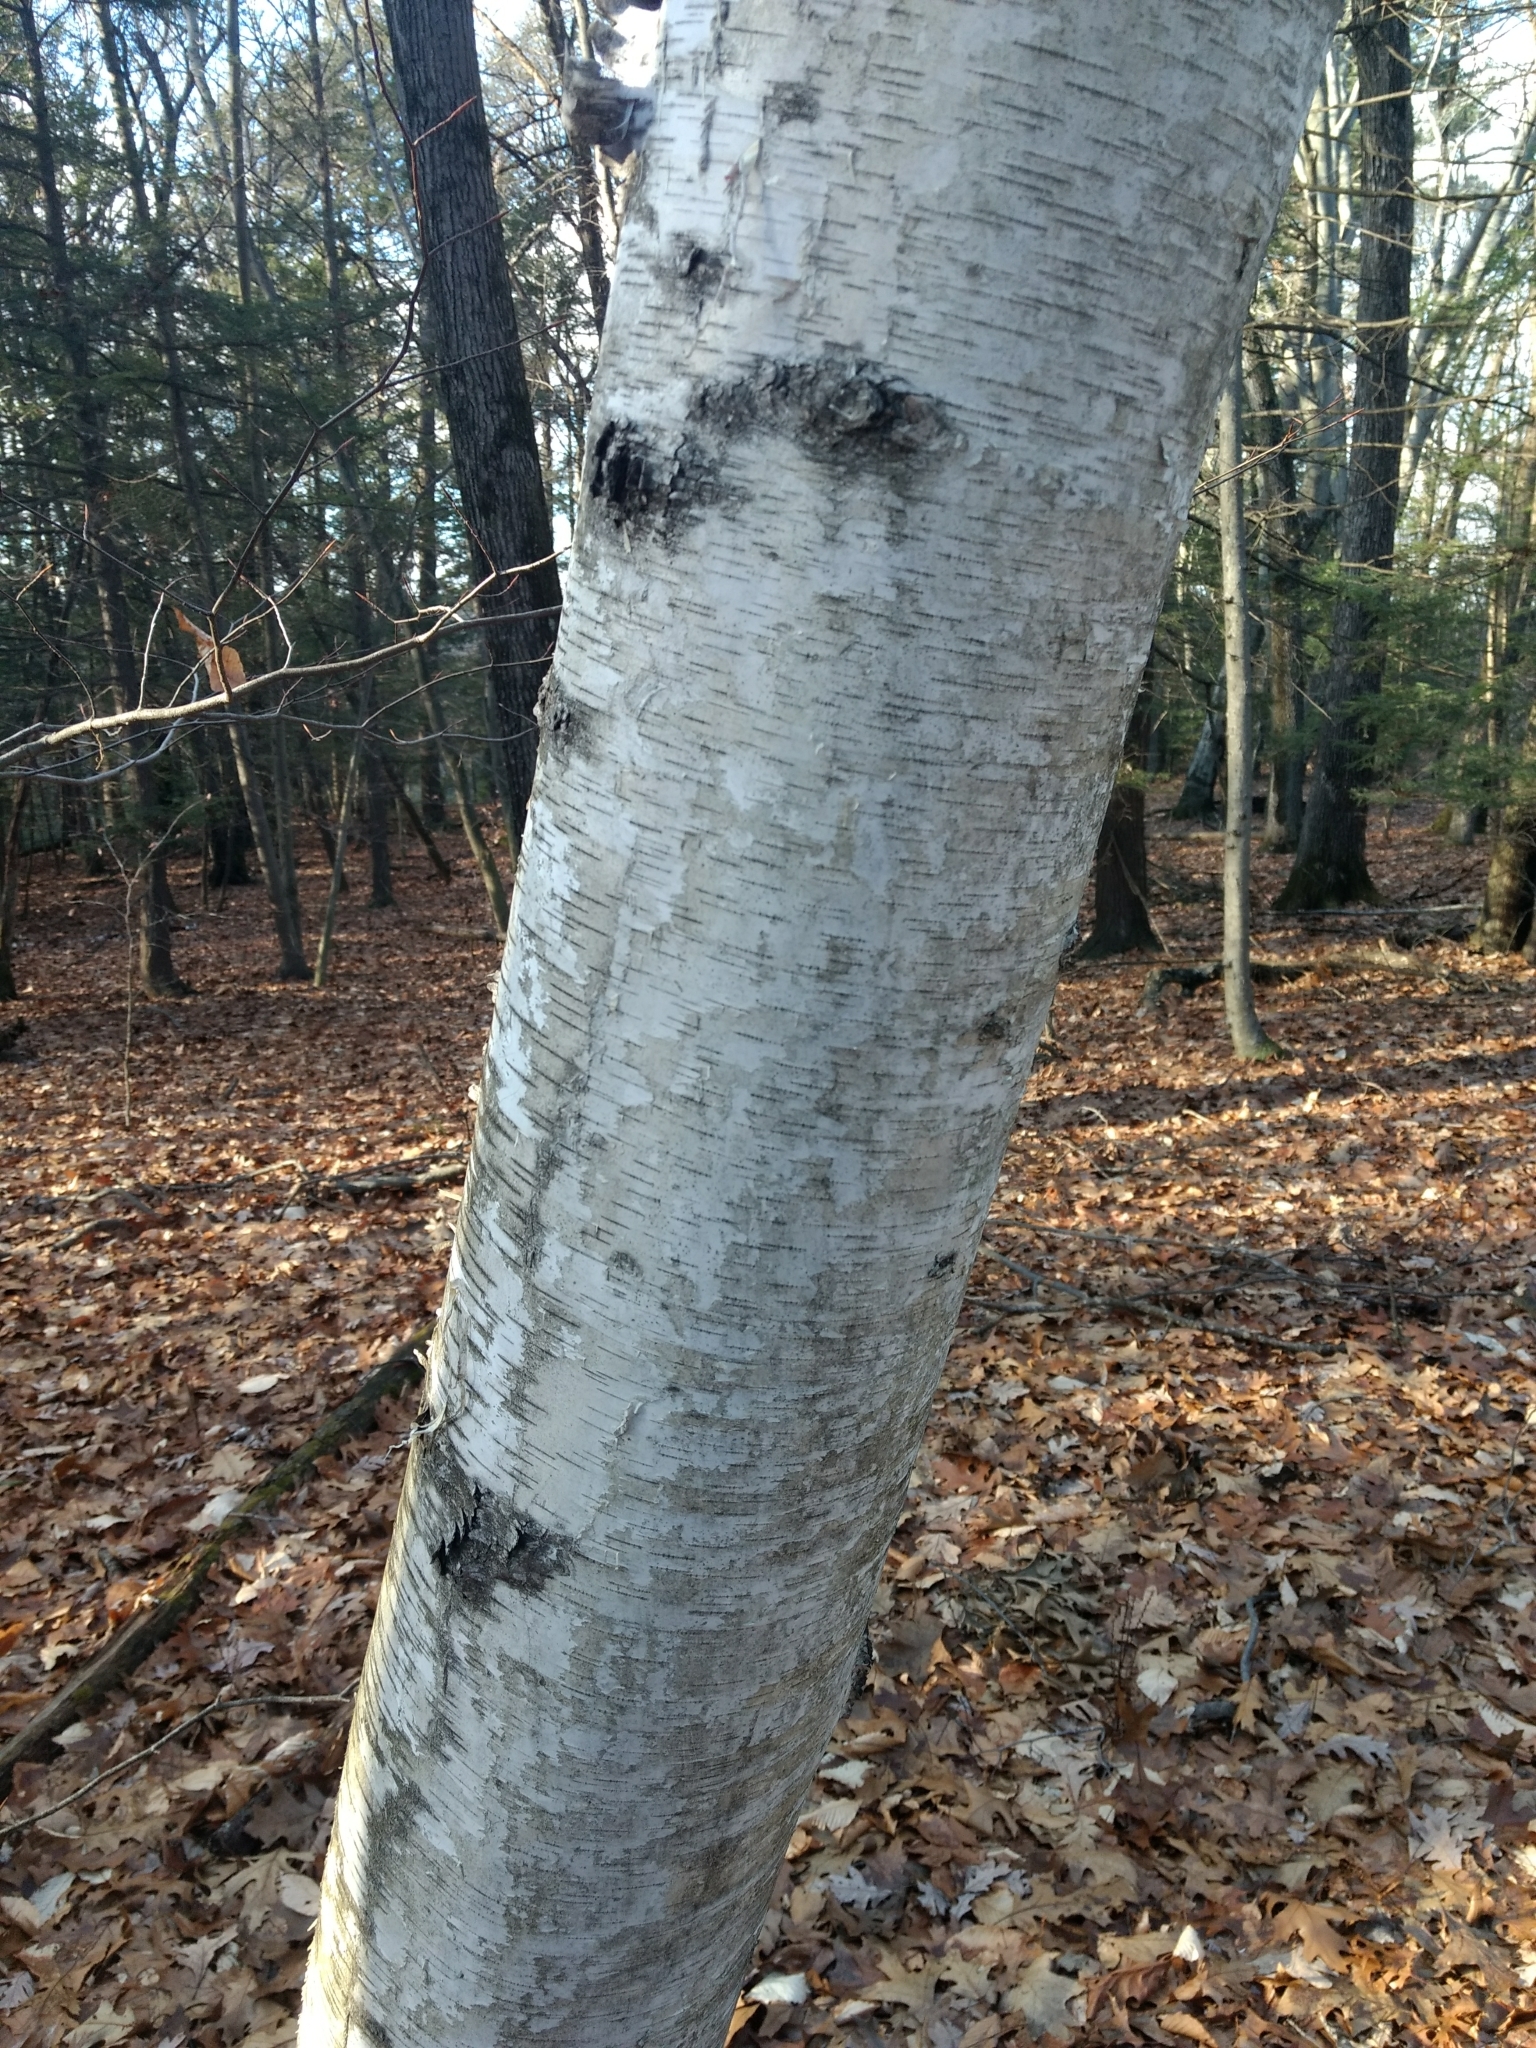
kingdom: Plantae
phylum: Tracheophyta
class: Magnoliopsida
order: Fagales
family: Betulaceae
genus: Betula
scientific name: Betula papyrifera
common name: Paper birch
